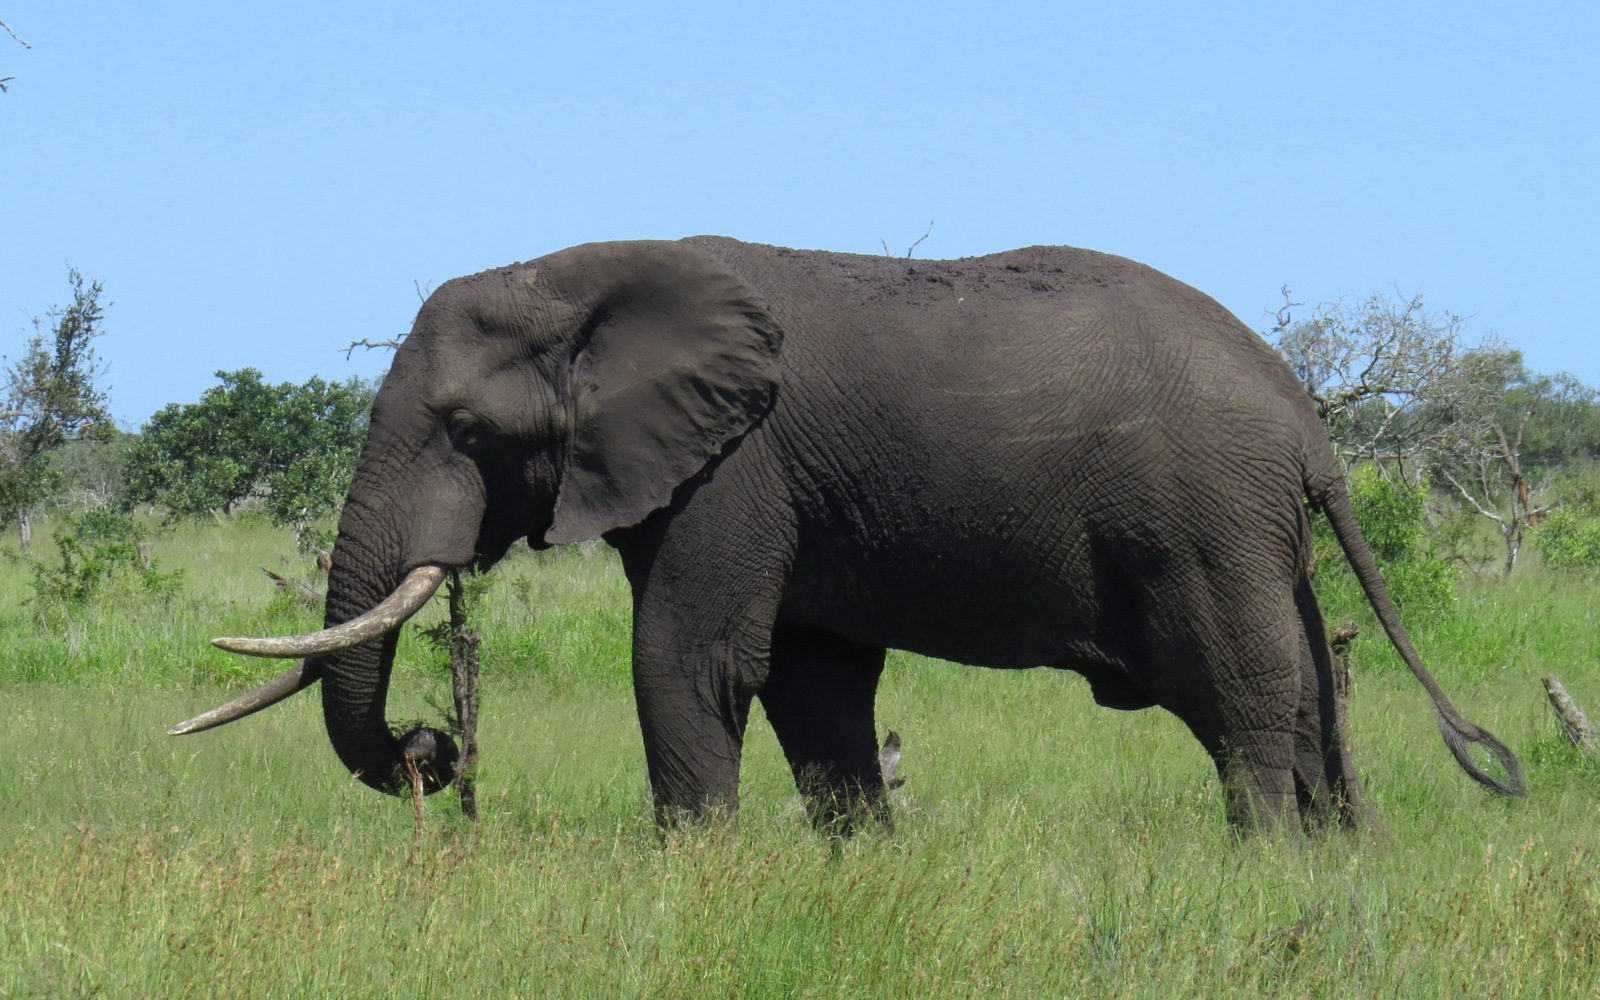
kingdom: Animalia
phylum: Chordata
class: Mammalia
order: Proboscidea
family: Elephantidae
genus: Loxodonta
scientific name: Loxodonta africana
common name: African elephant
